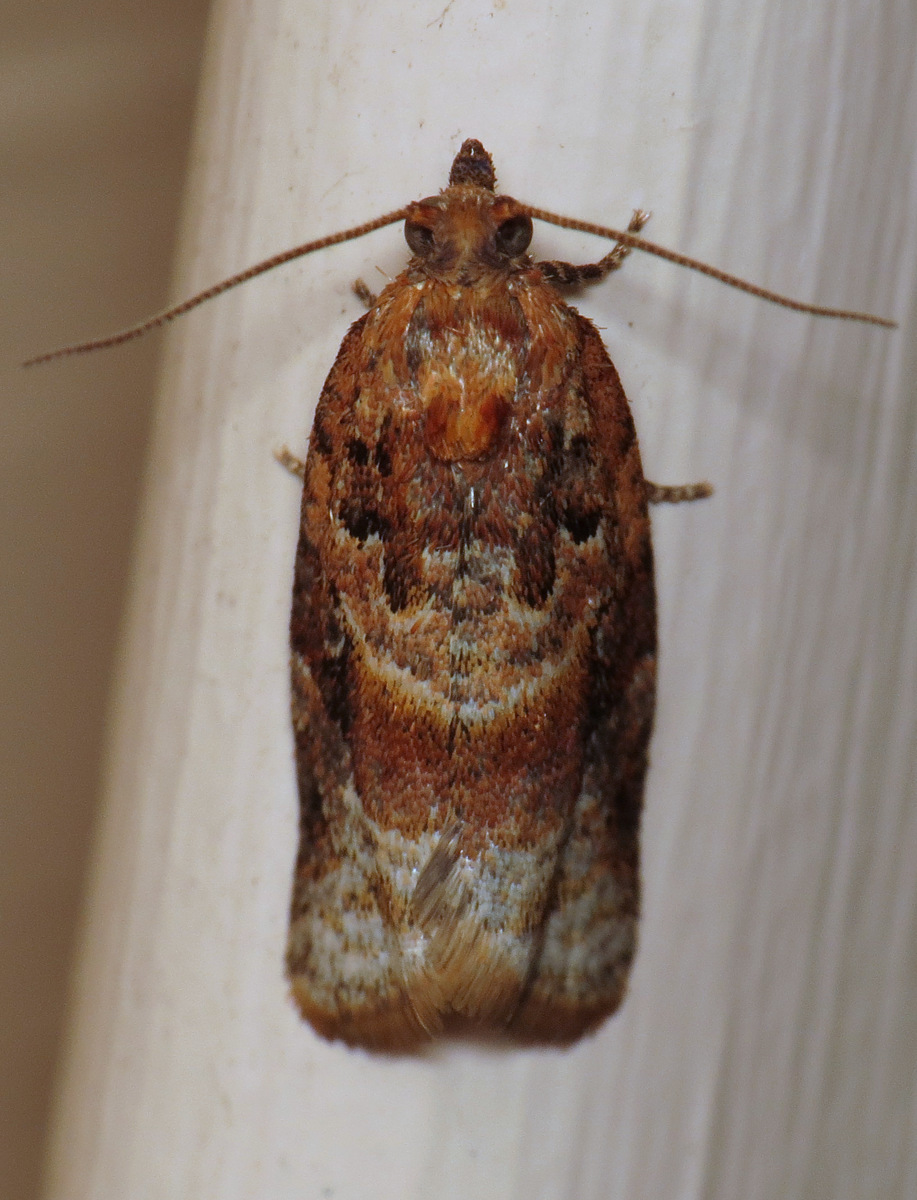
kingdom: Animalia
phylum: Arthropoda
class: Insecta
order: Lepidoptera
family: Tortricidae
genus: Argyrotaenia
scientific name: Argyrotaenia velutinana
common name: Red-banded leafroller moth
